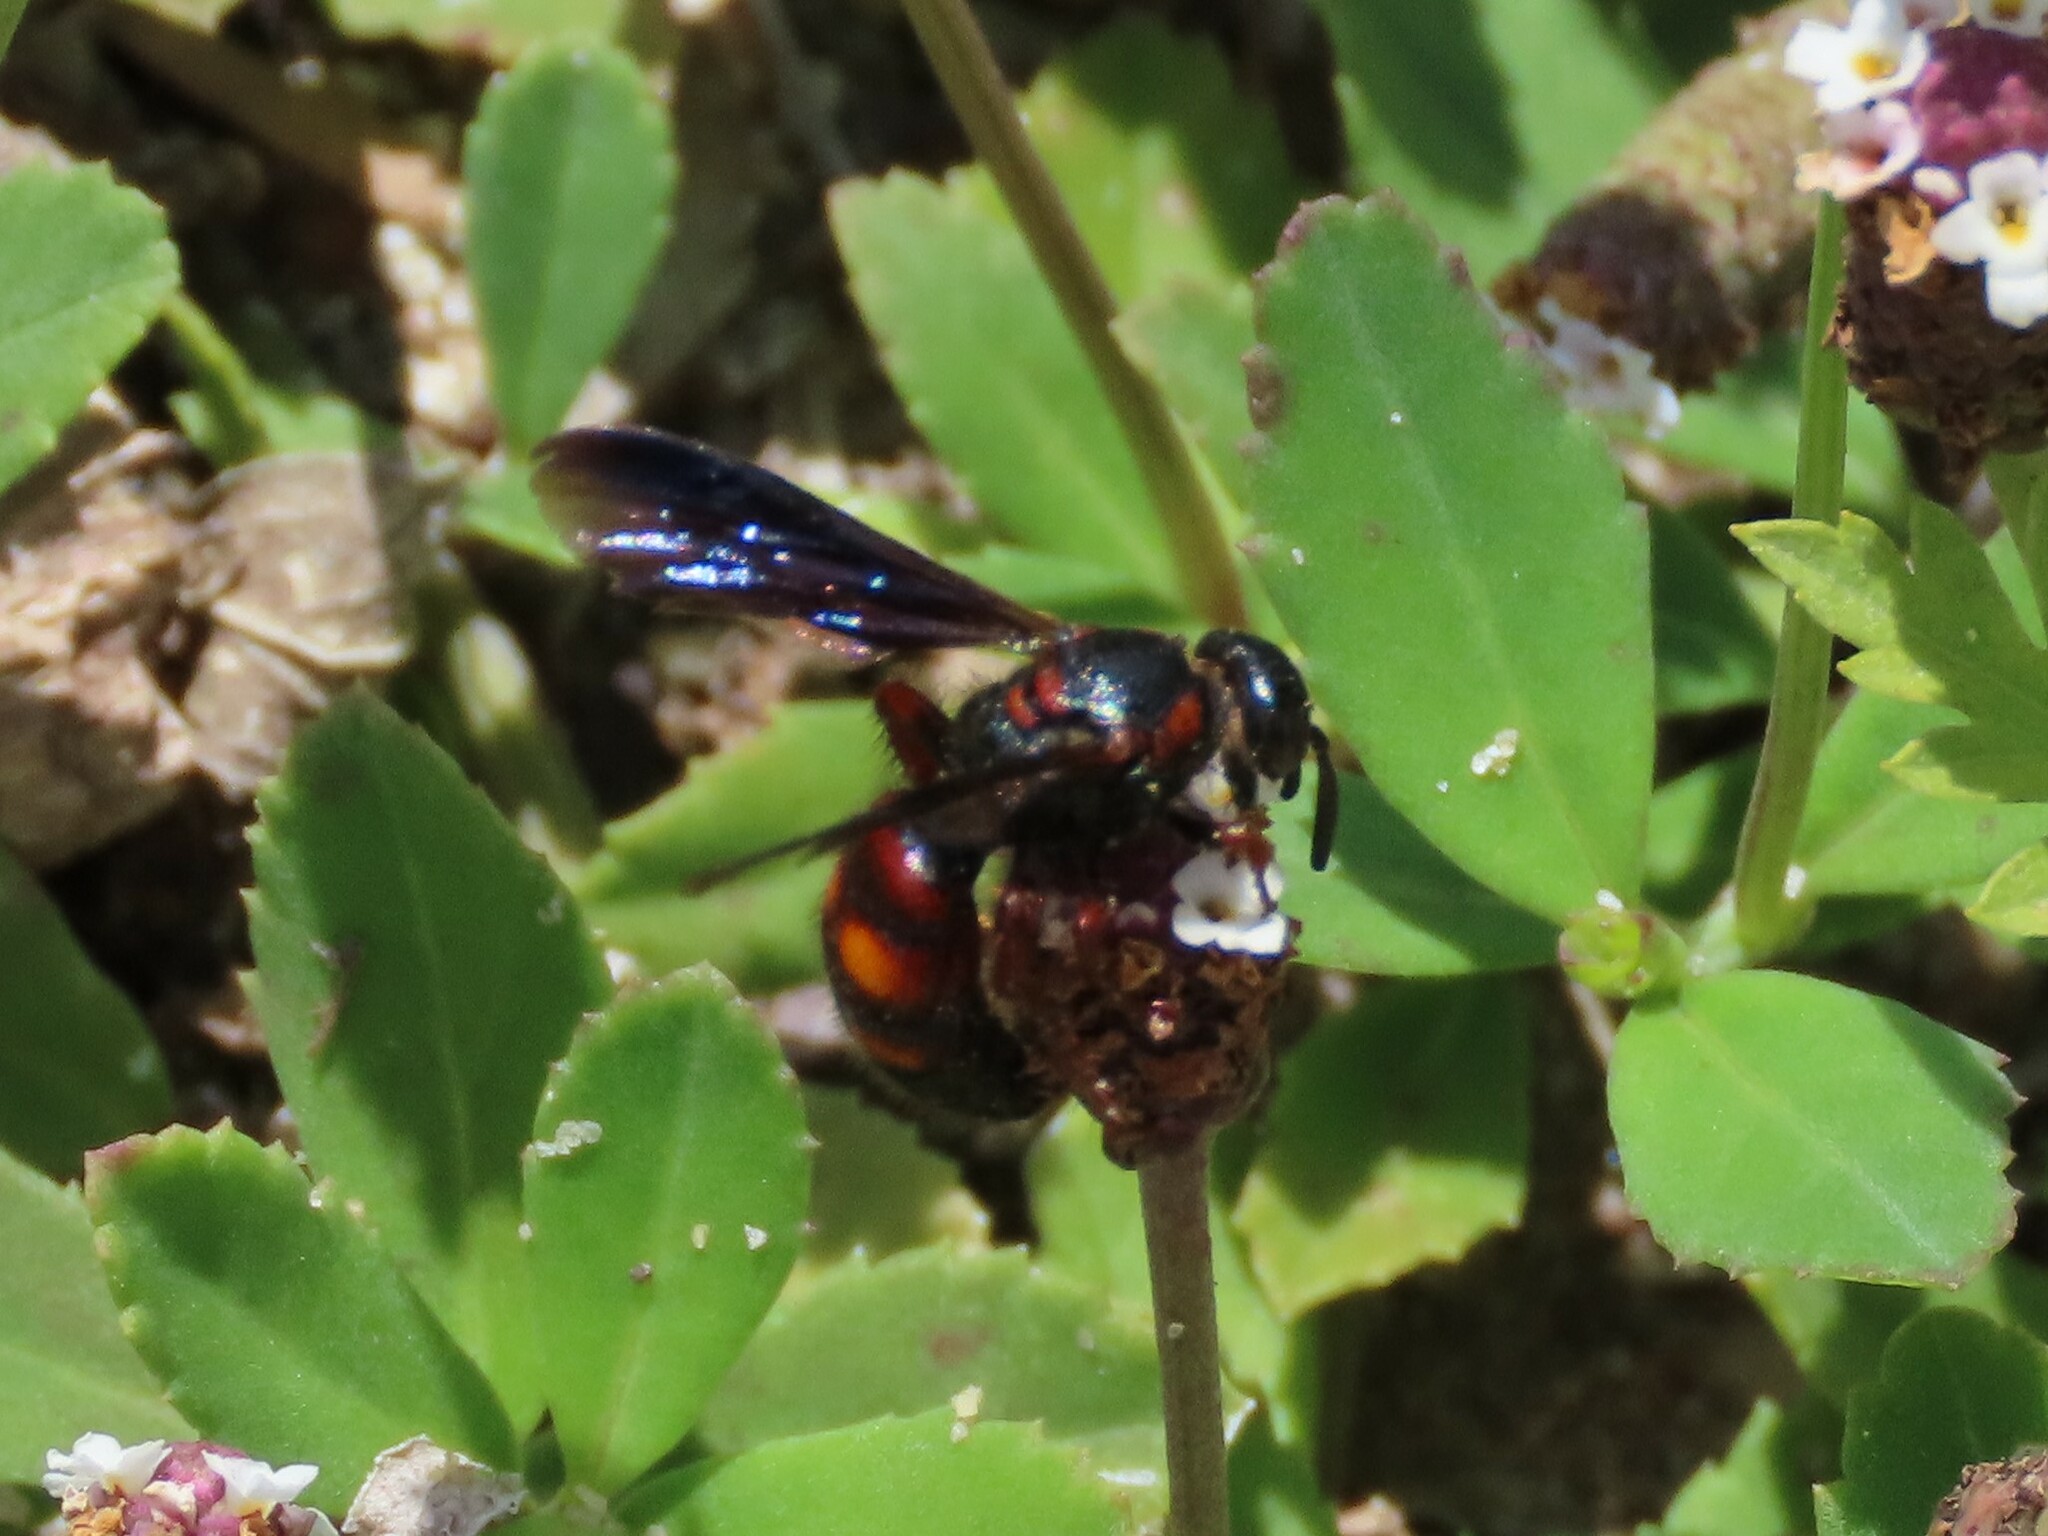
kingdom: Animalia
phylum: Arthropoda
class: Insecta
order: Hymenoptera
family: Scoliidae
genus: Scolia
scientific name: Scolia nobilitata
